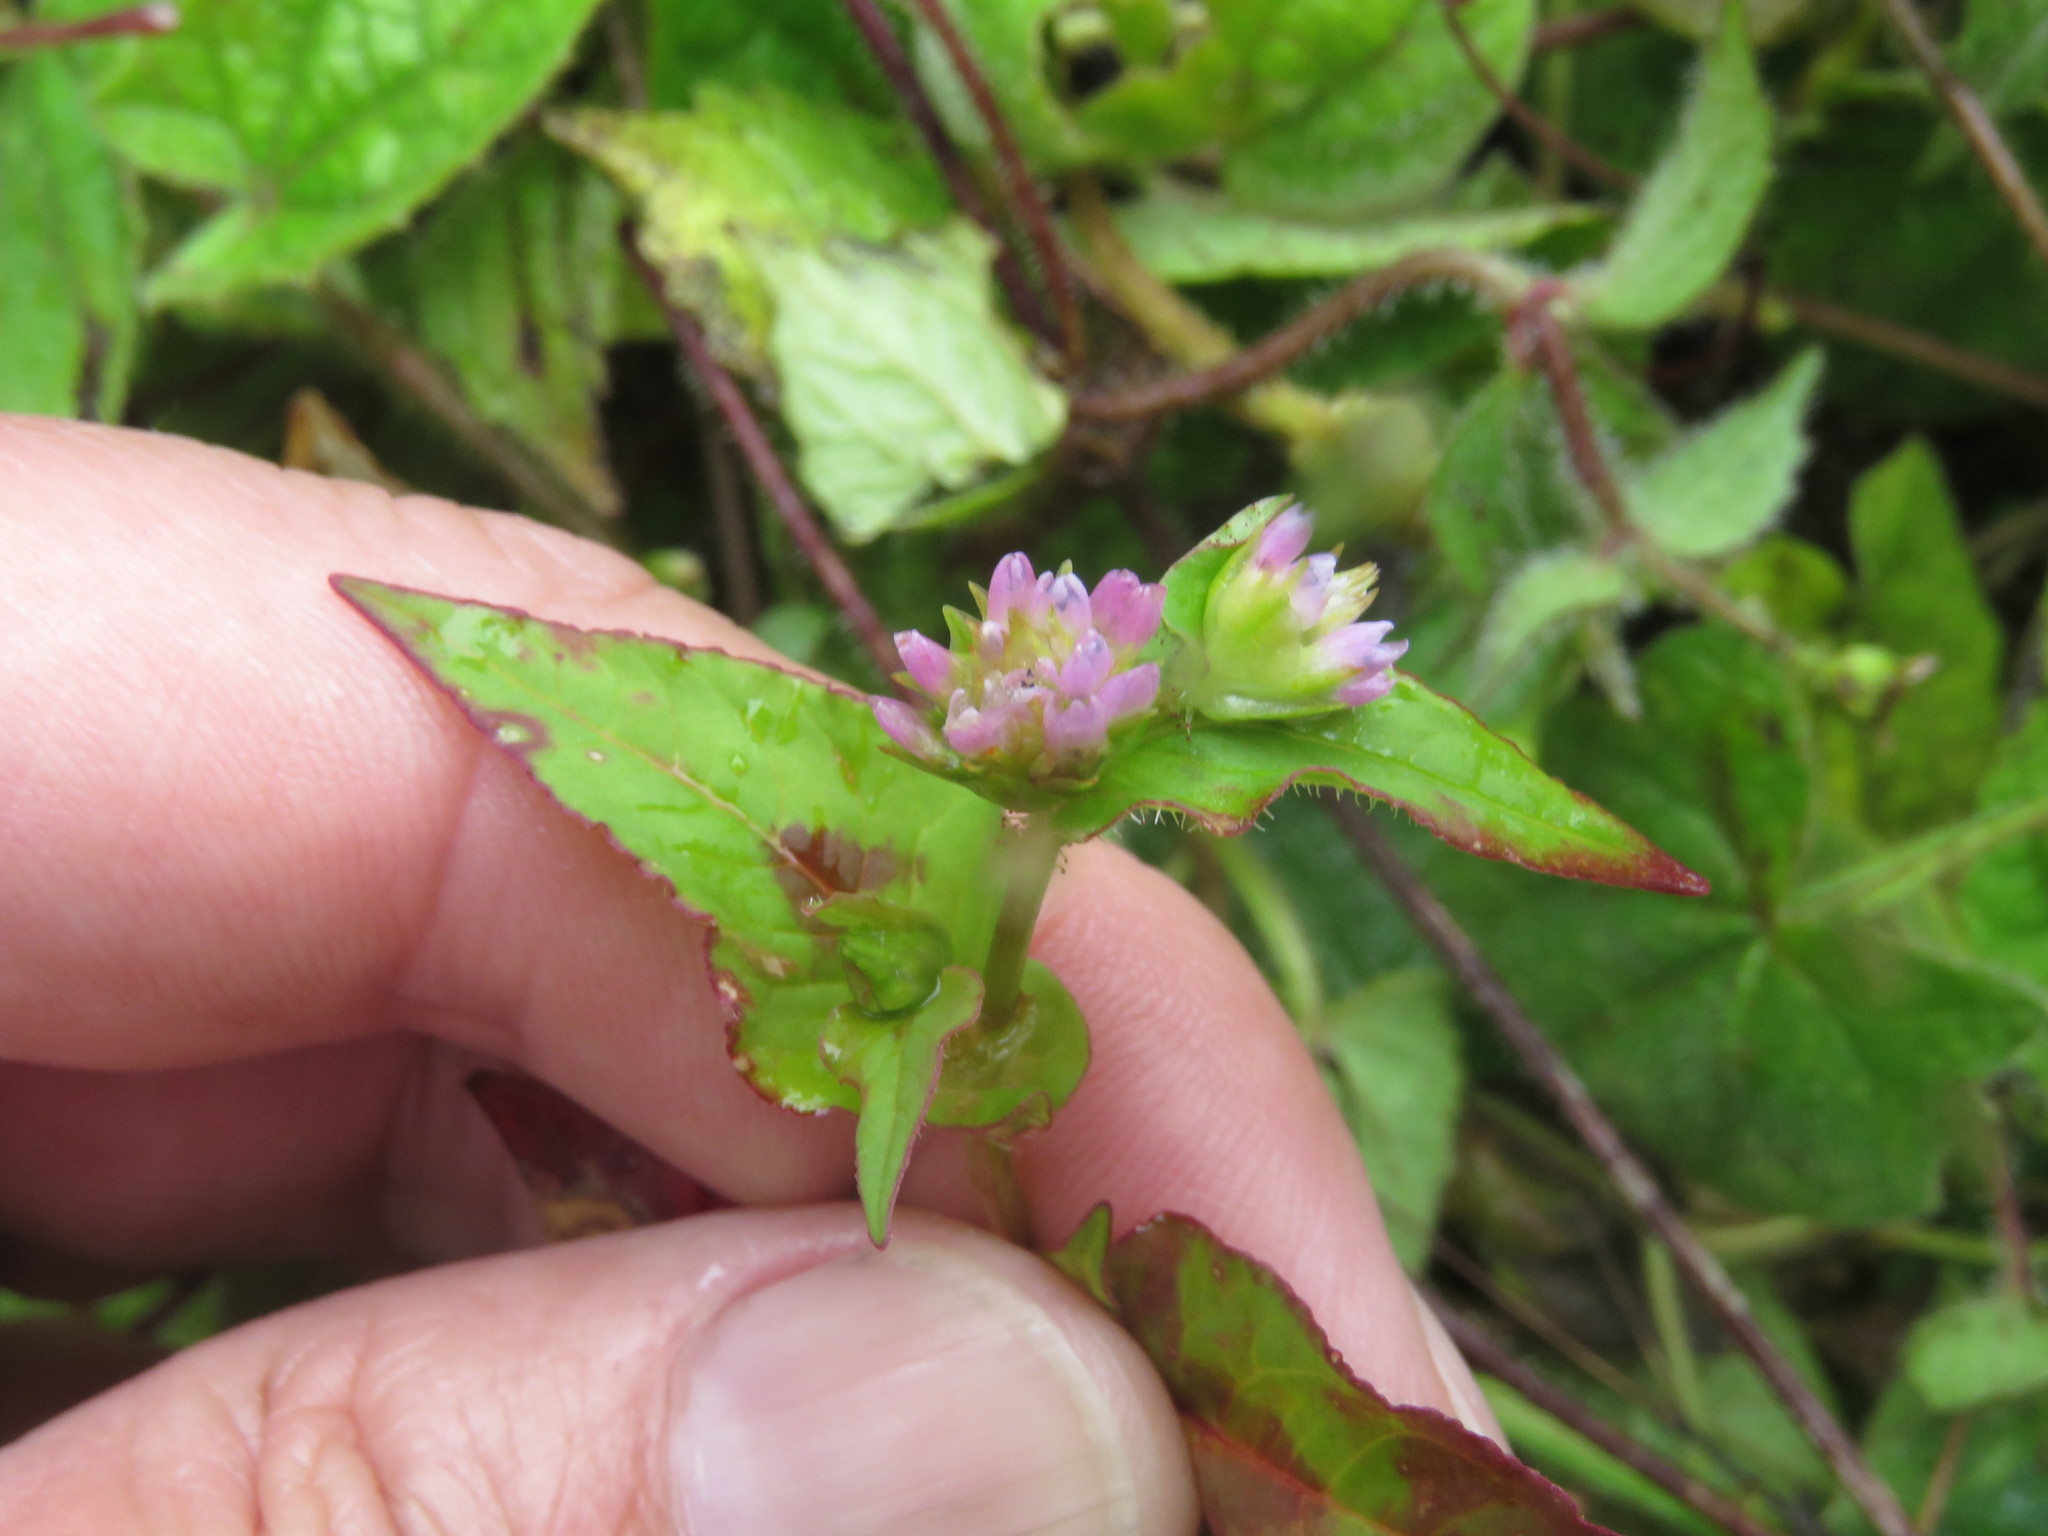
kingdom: Plantae
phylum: Tracheophyta
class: Magnoliopsida
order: Caryophyllales
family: Polygonaceae
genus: Persicaria
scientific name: Persicaria nepalensis
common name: Nepal persicaria
